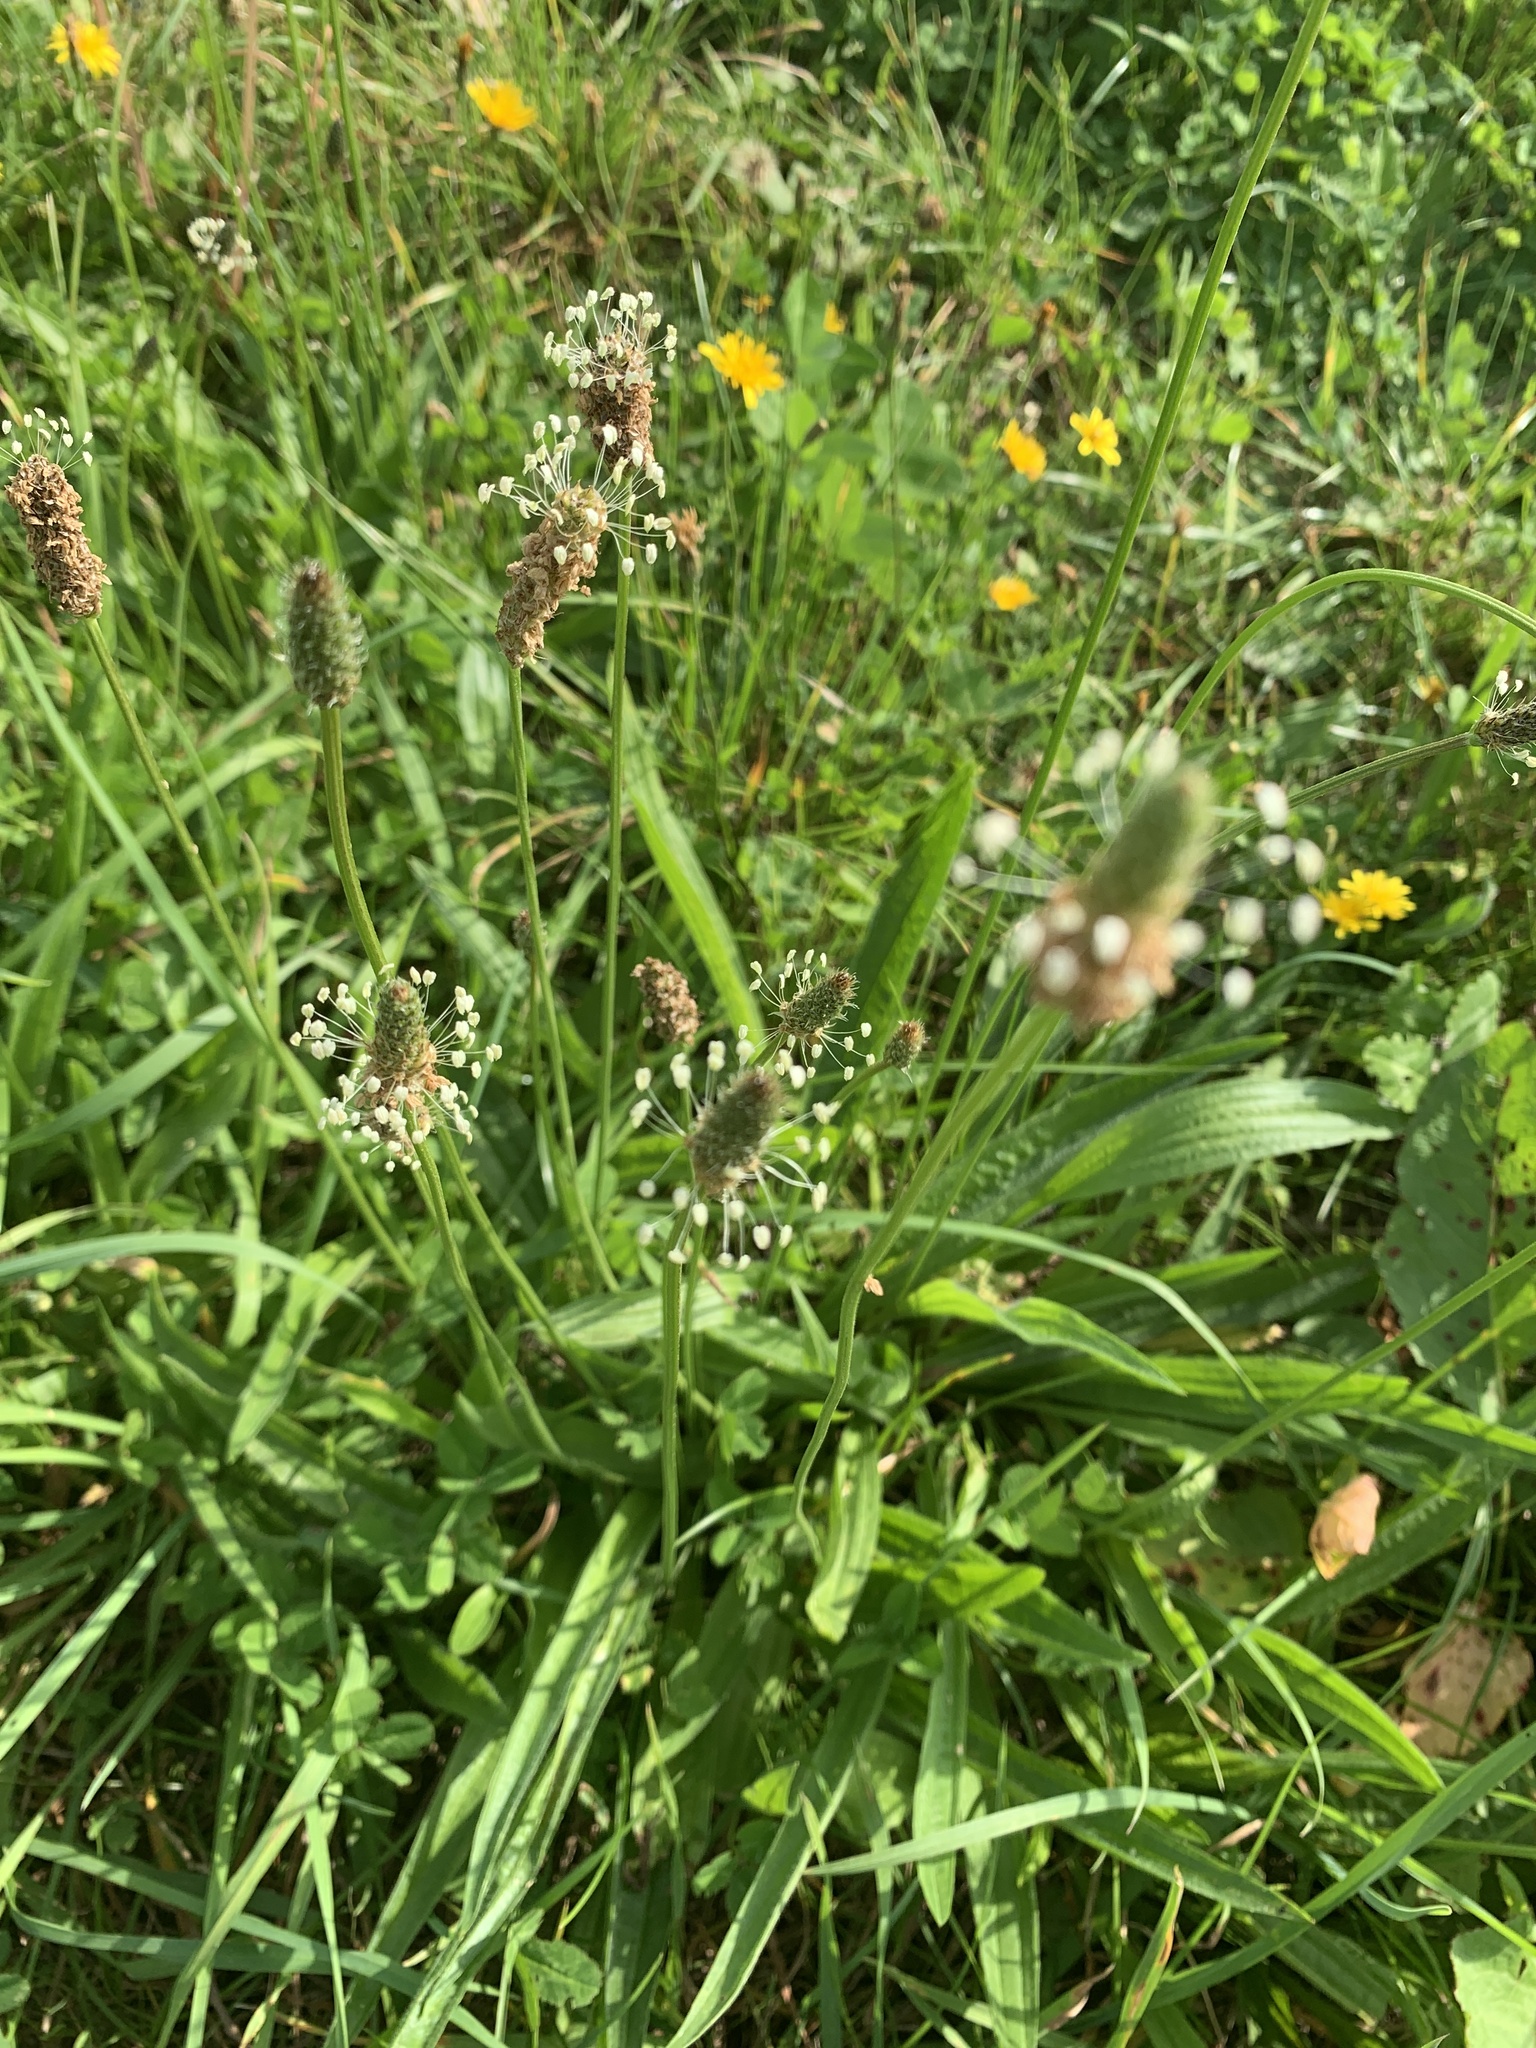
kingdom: Plantae
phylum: Tracheophyta
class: Magnoliopsida
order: Lamiales
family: Plantaginaceae
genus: Plantago
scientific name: Plantago lanceolata
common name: Ribwort plantain
